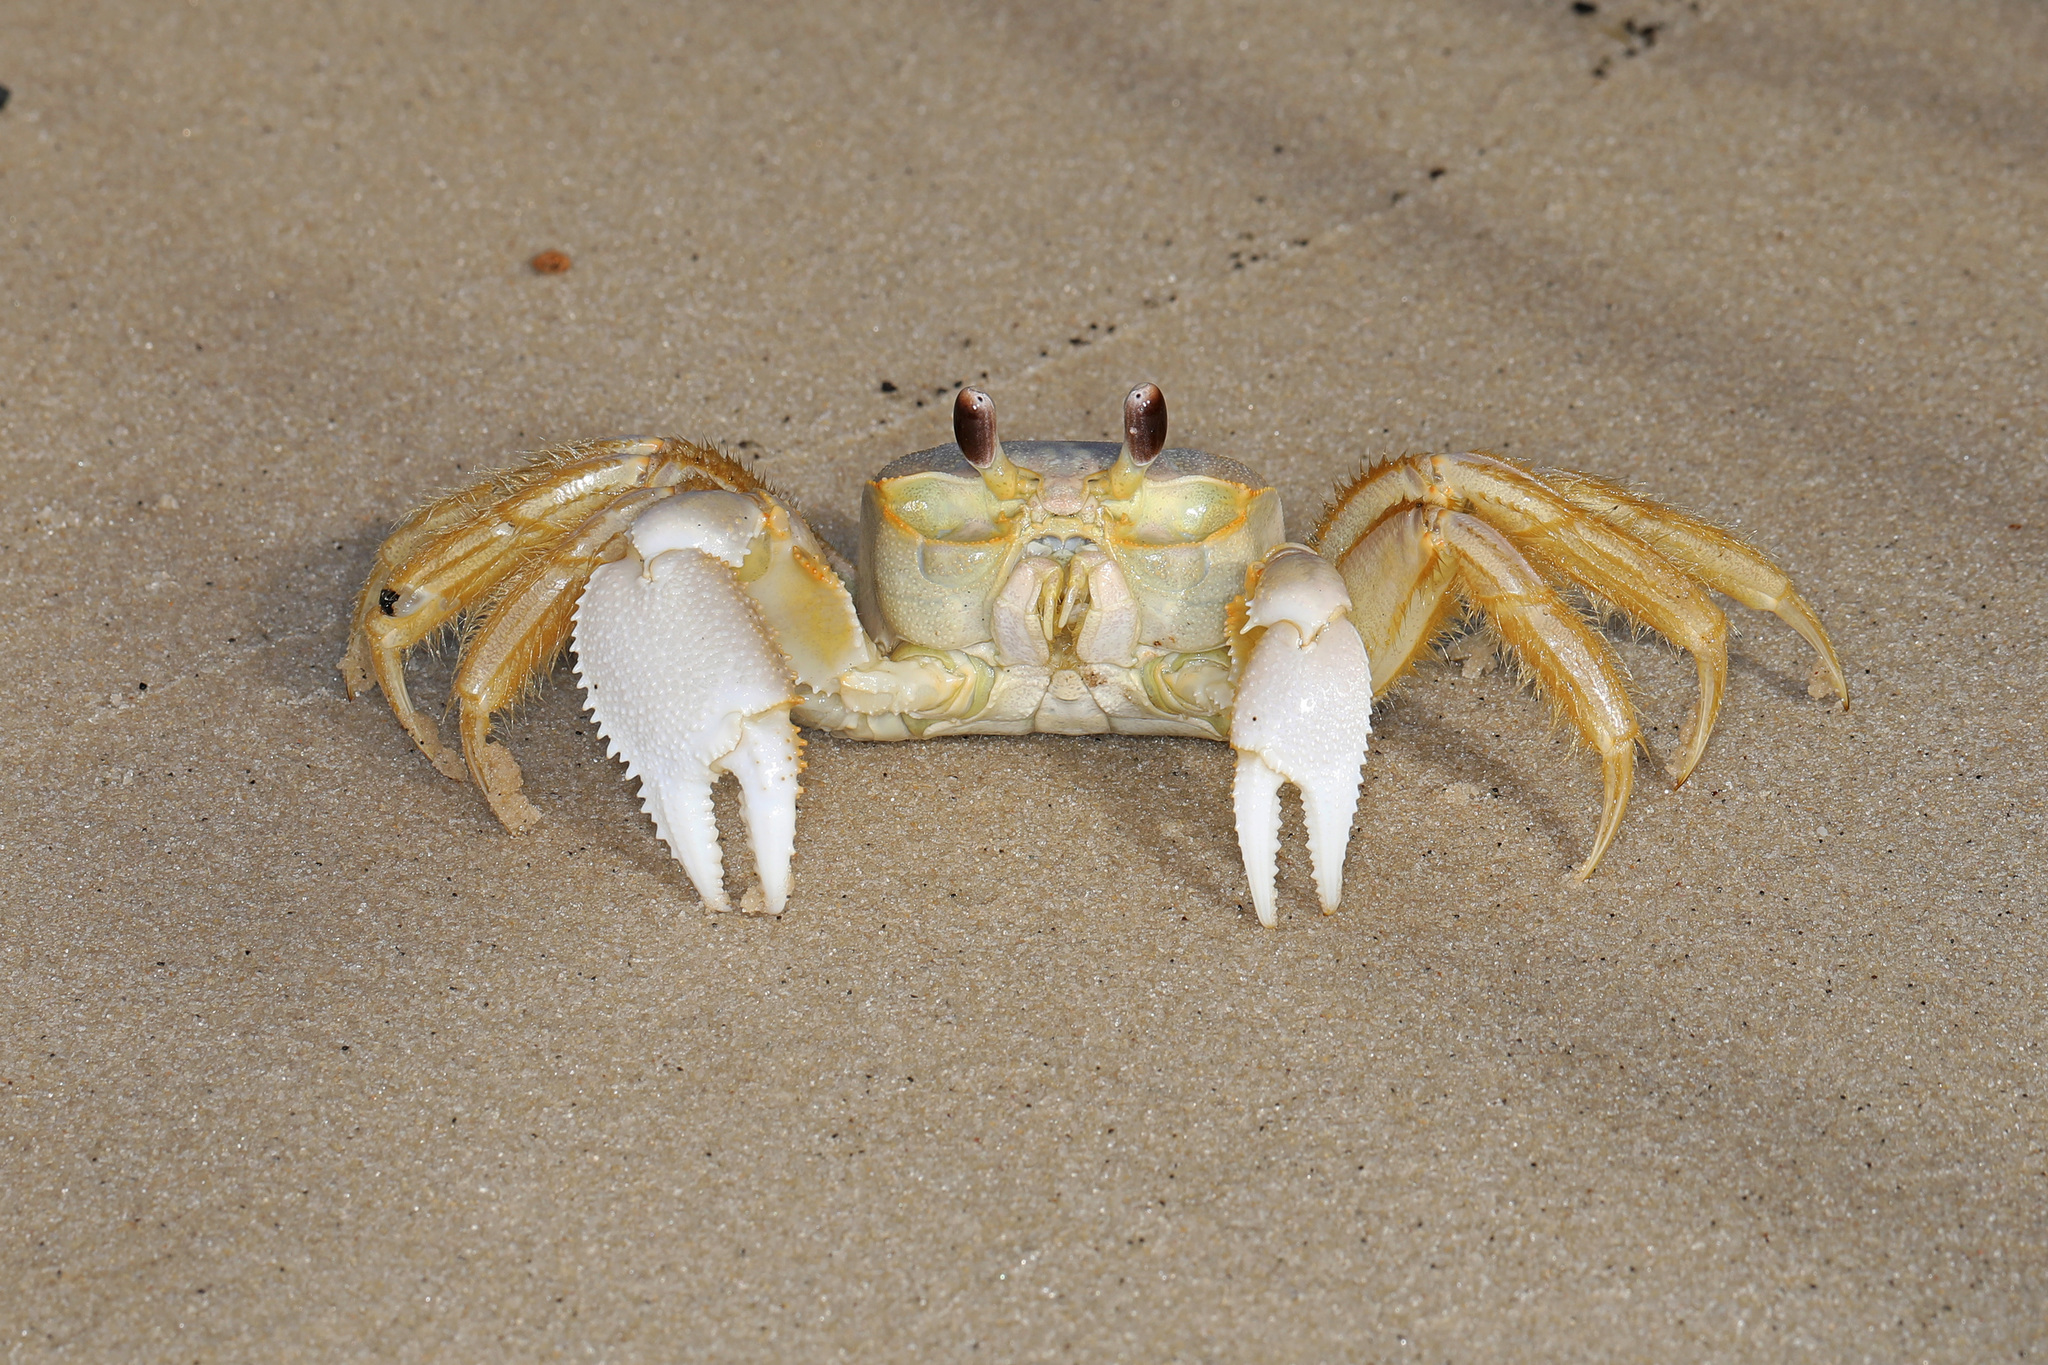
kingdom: Animalia
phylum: Arthropoda
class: Malacostraca
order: Decapoda
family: Ocypodidae
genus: Ocypode
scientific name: Ocypode quadrata
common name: Ghost crab
